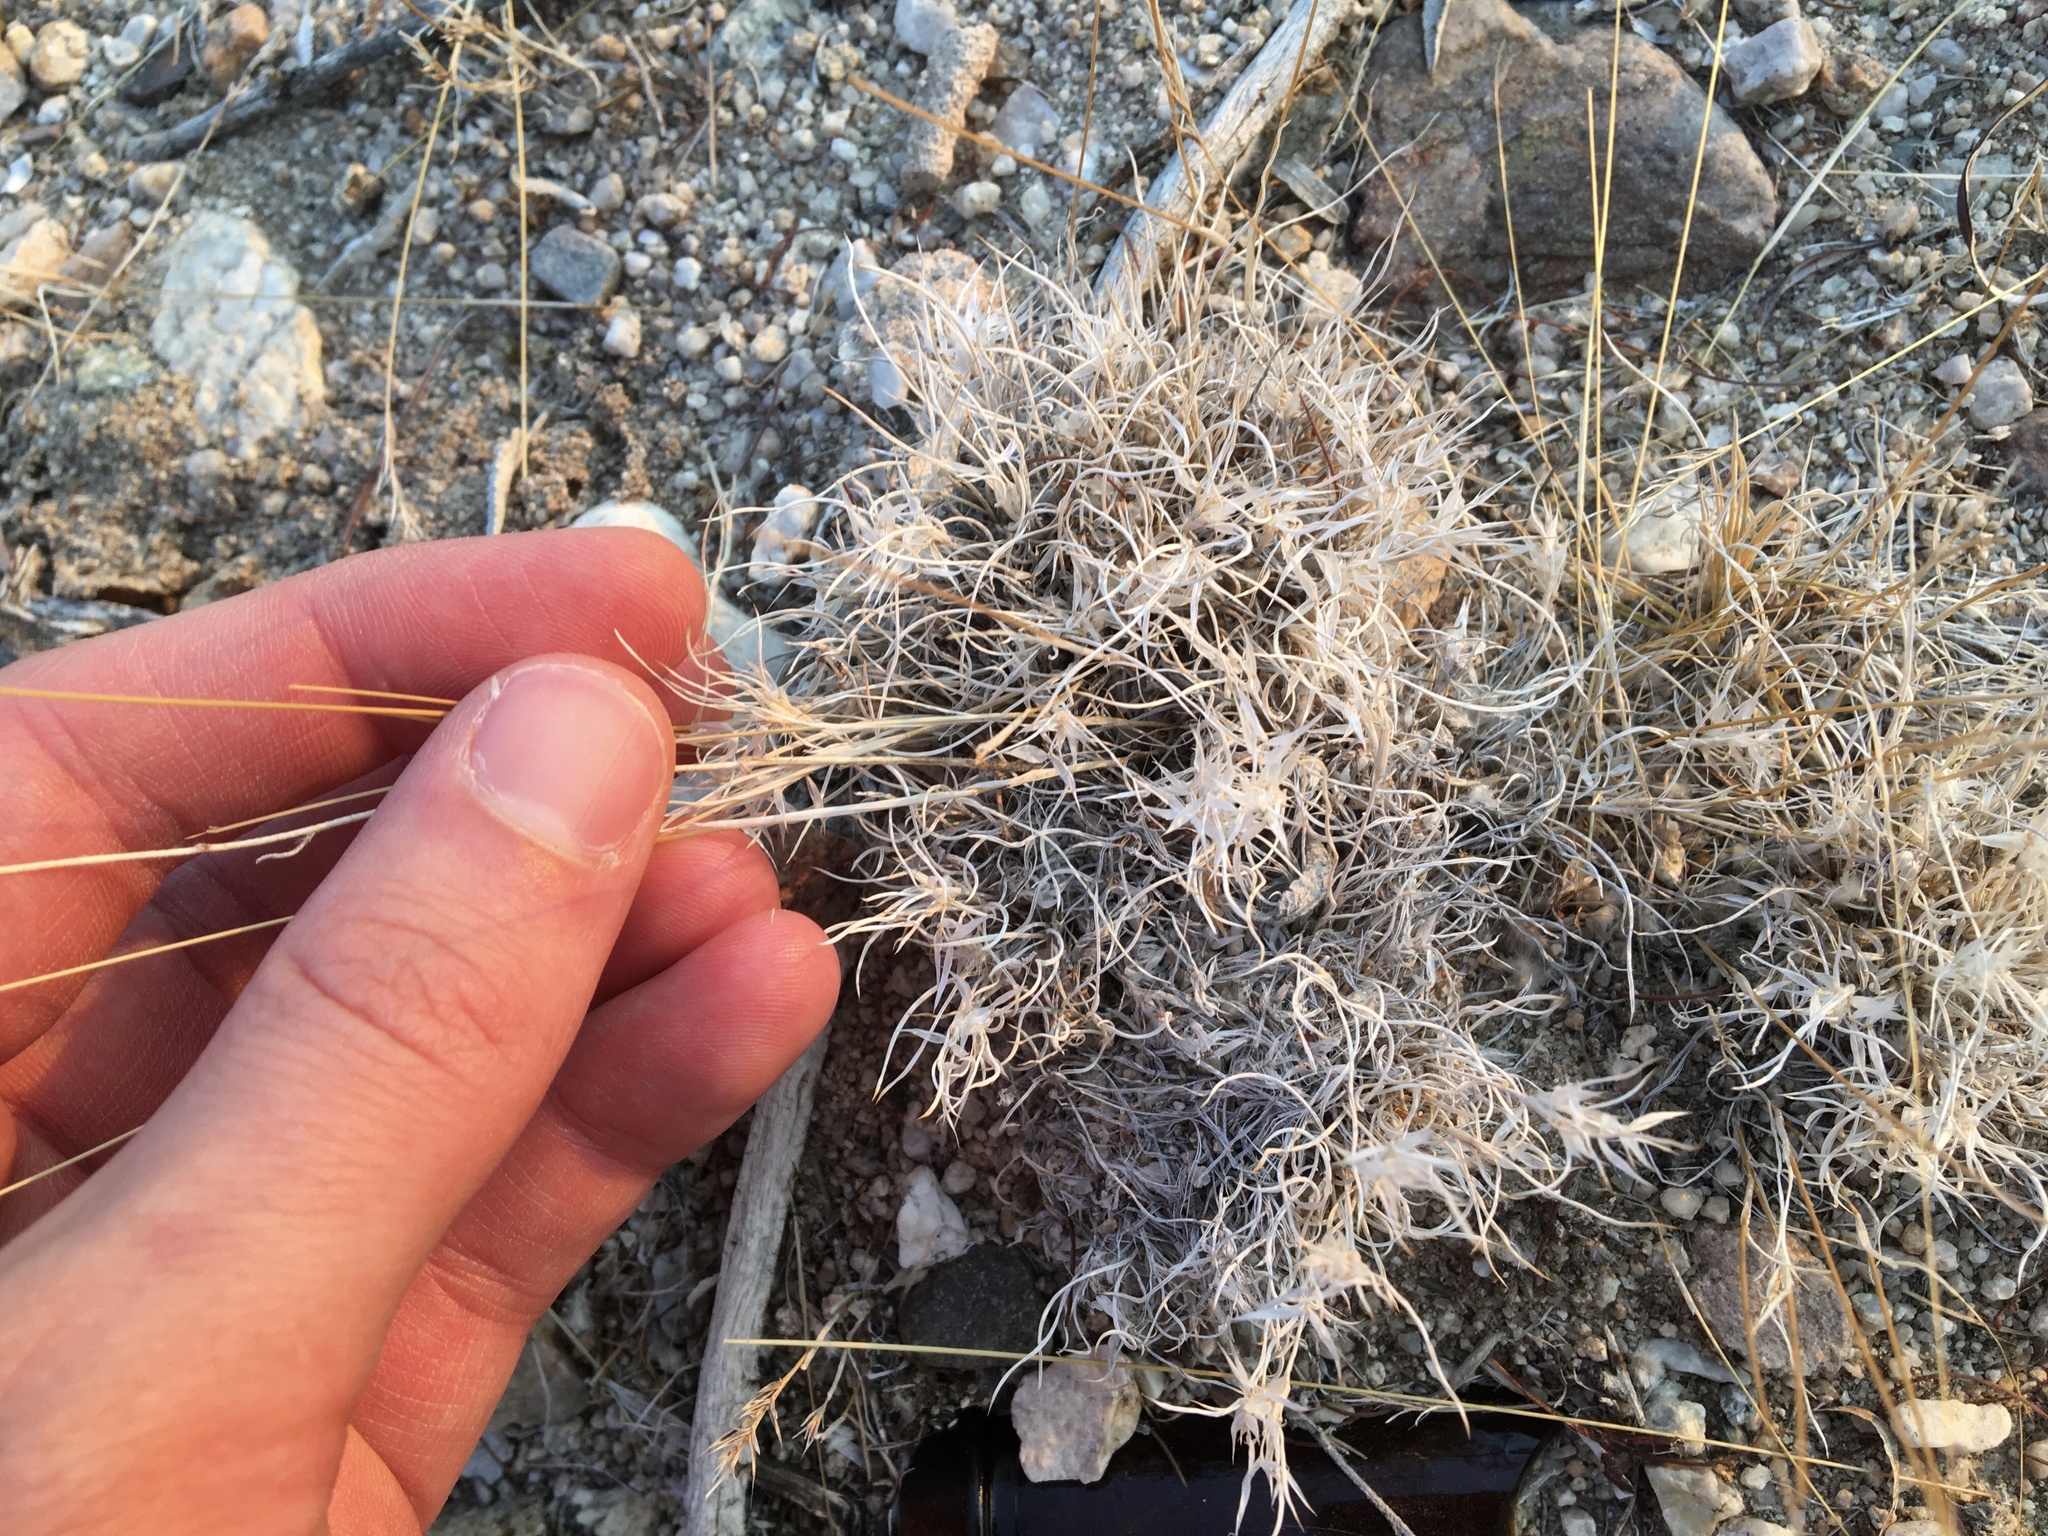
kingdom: Plantae
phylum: Tracheophyta
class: Liliopsida
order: Poales
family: Poaceae
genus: Dasyochloa
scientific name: Dasyochloa pulchella
